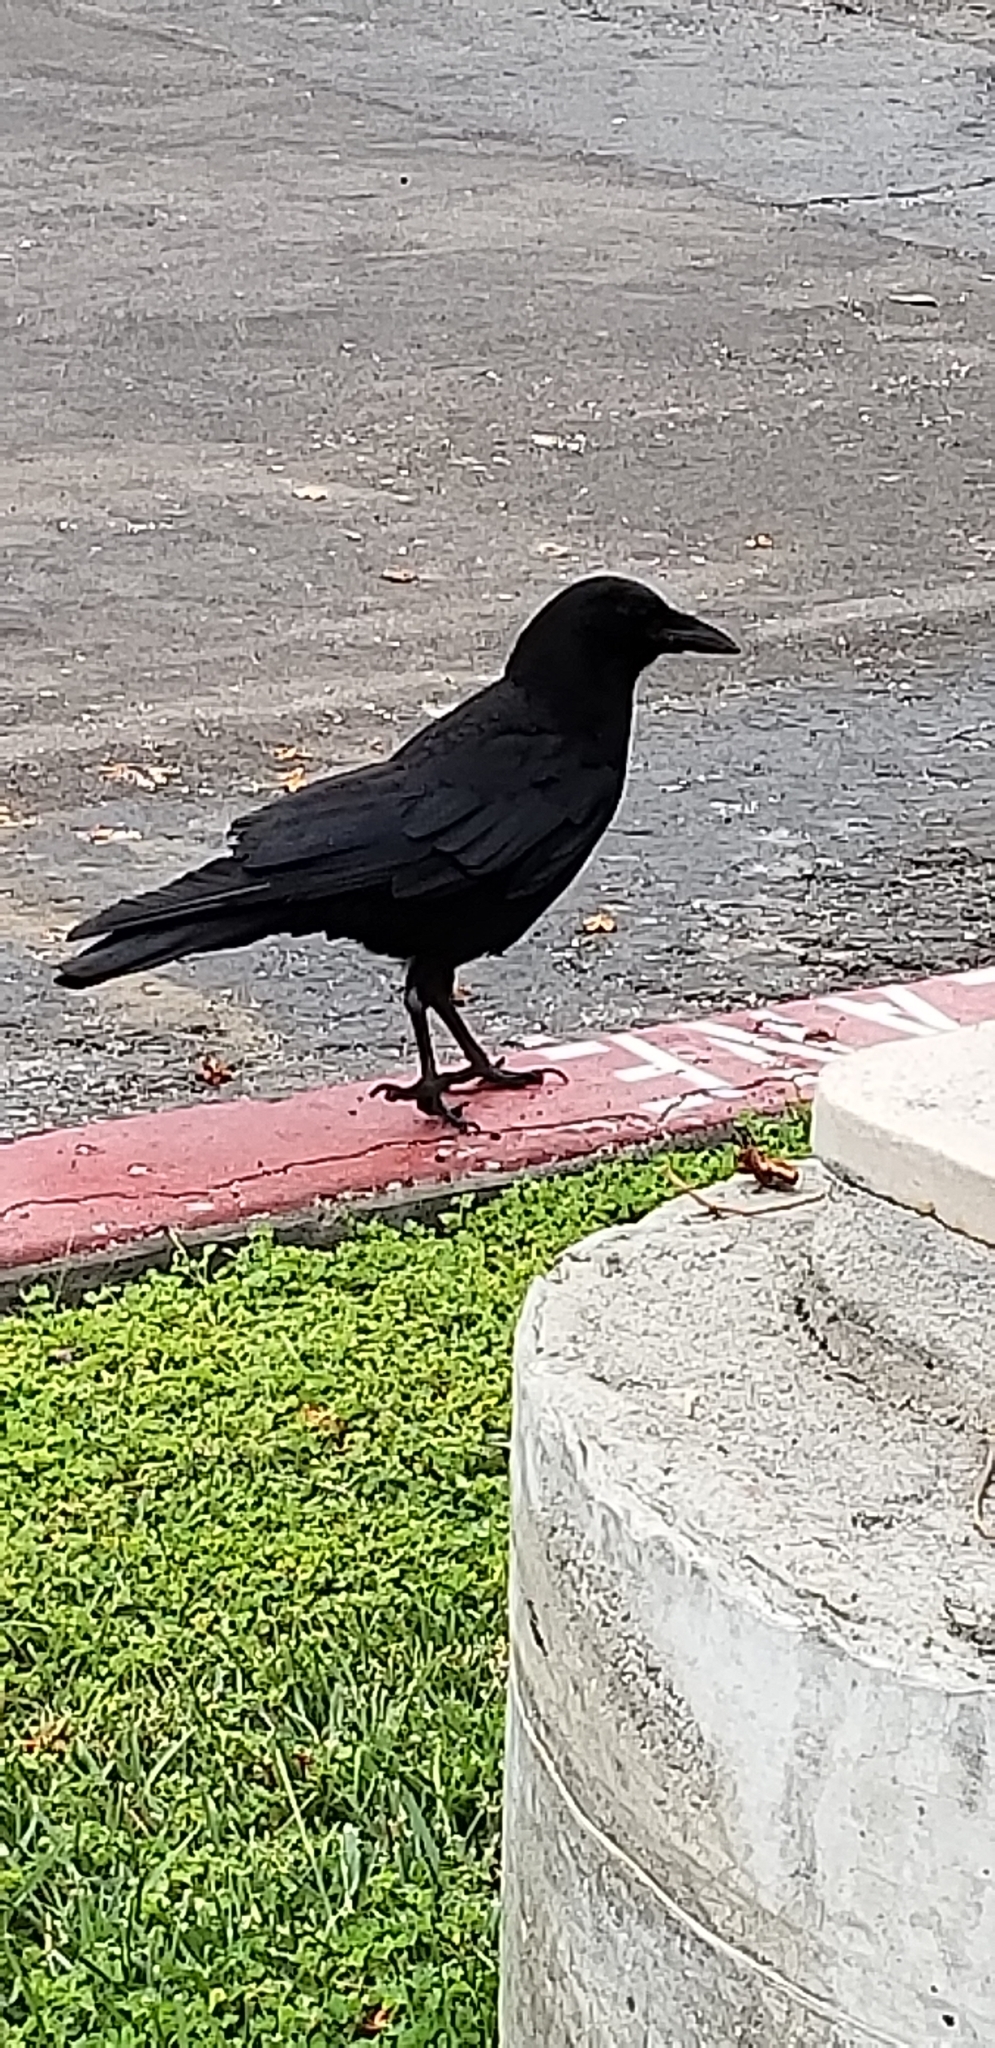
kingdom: Animalia
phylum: Chordata
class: Aves
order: Passeriformes
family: Corvidae
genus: Corvus
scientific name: Corvus brachyrhynchos
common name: American crow
